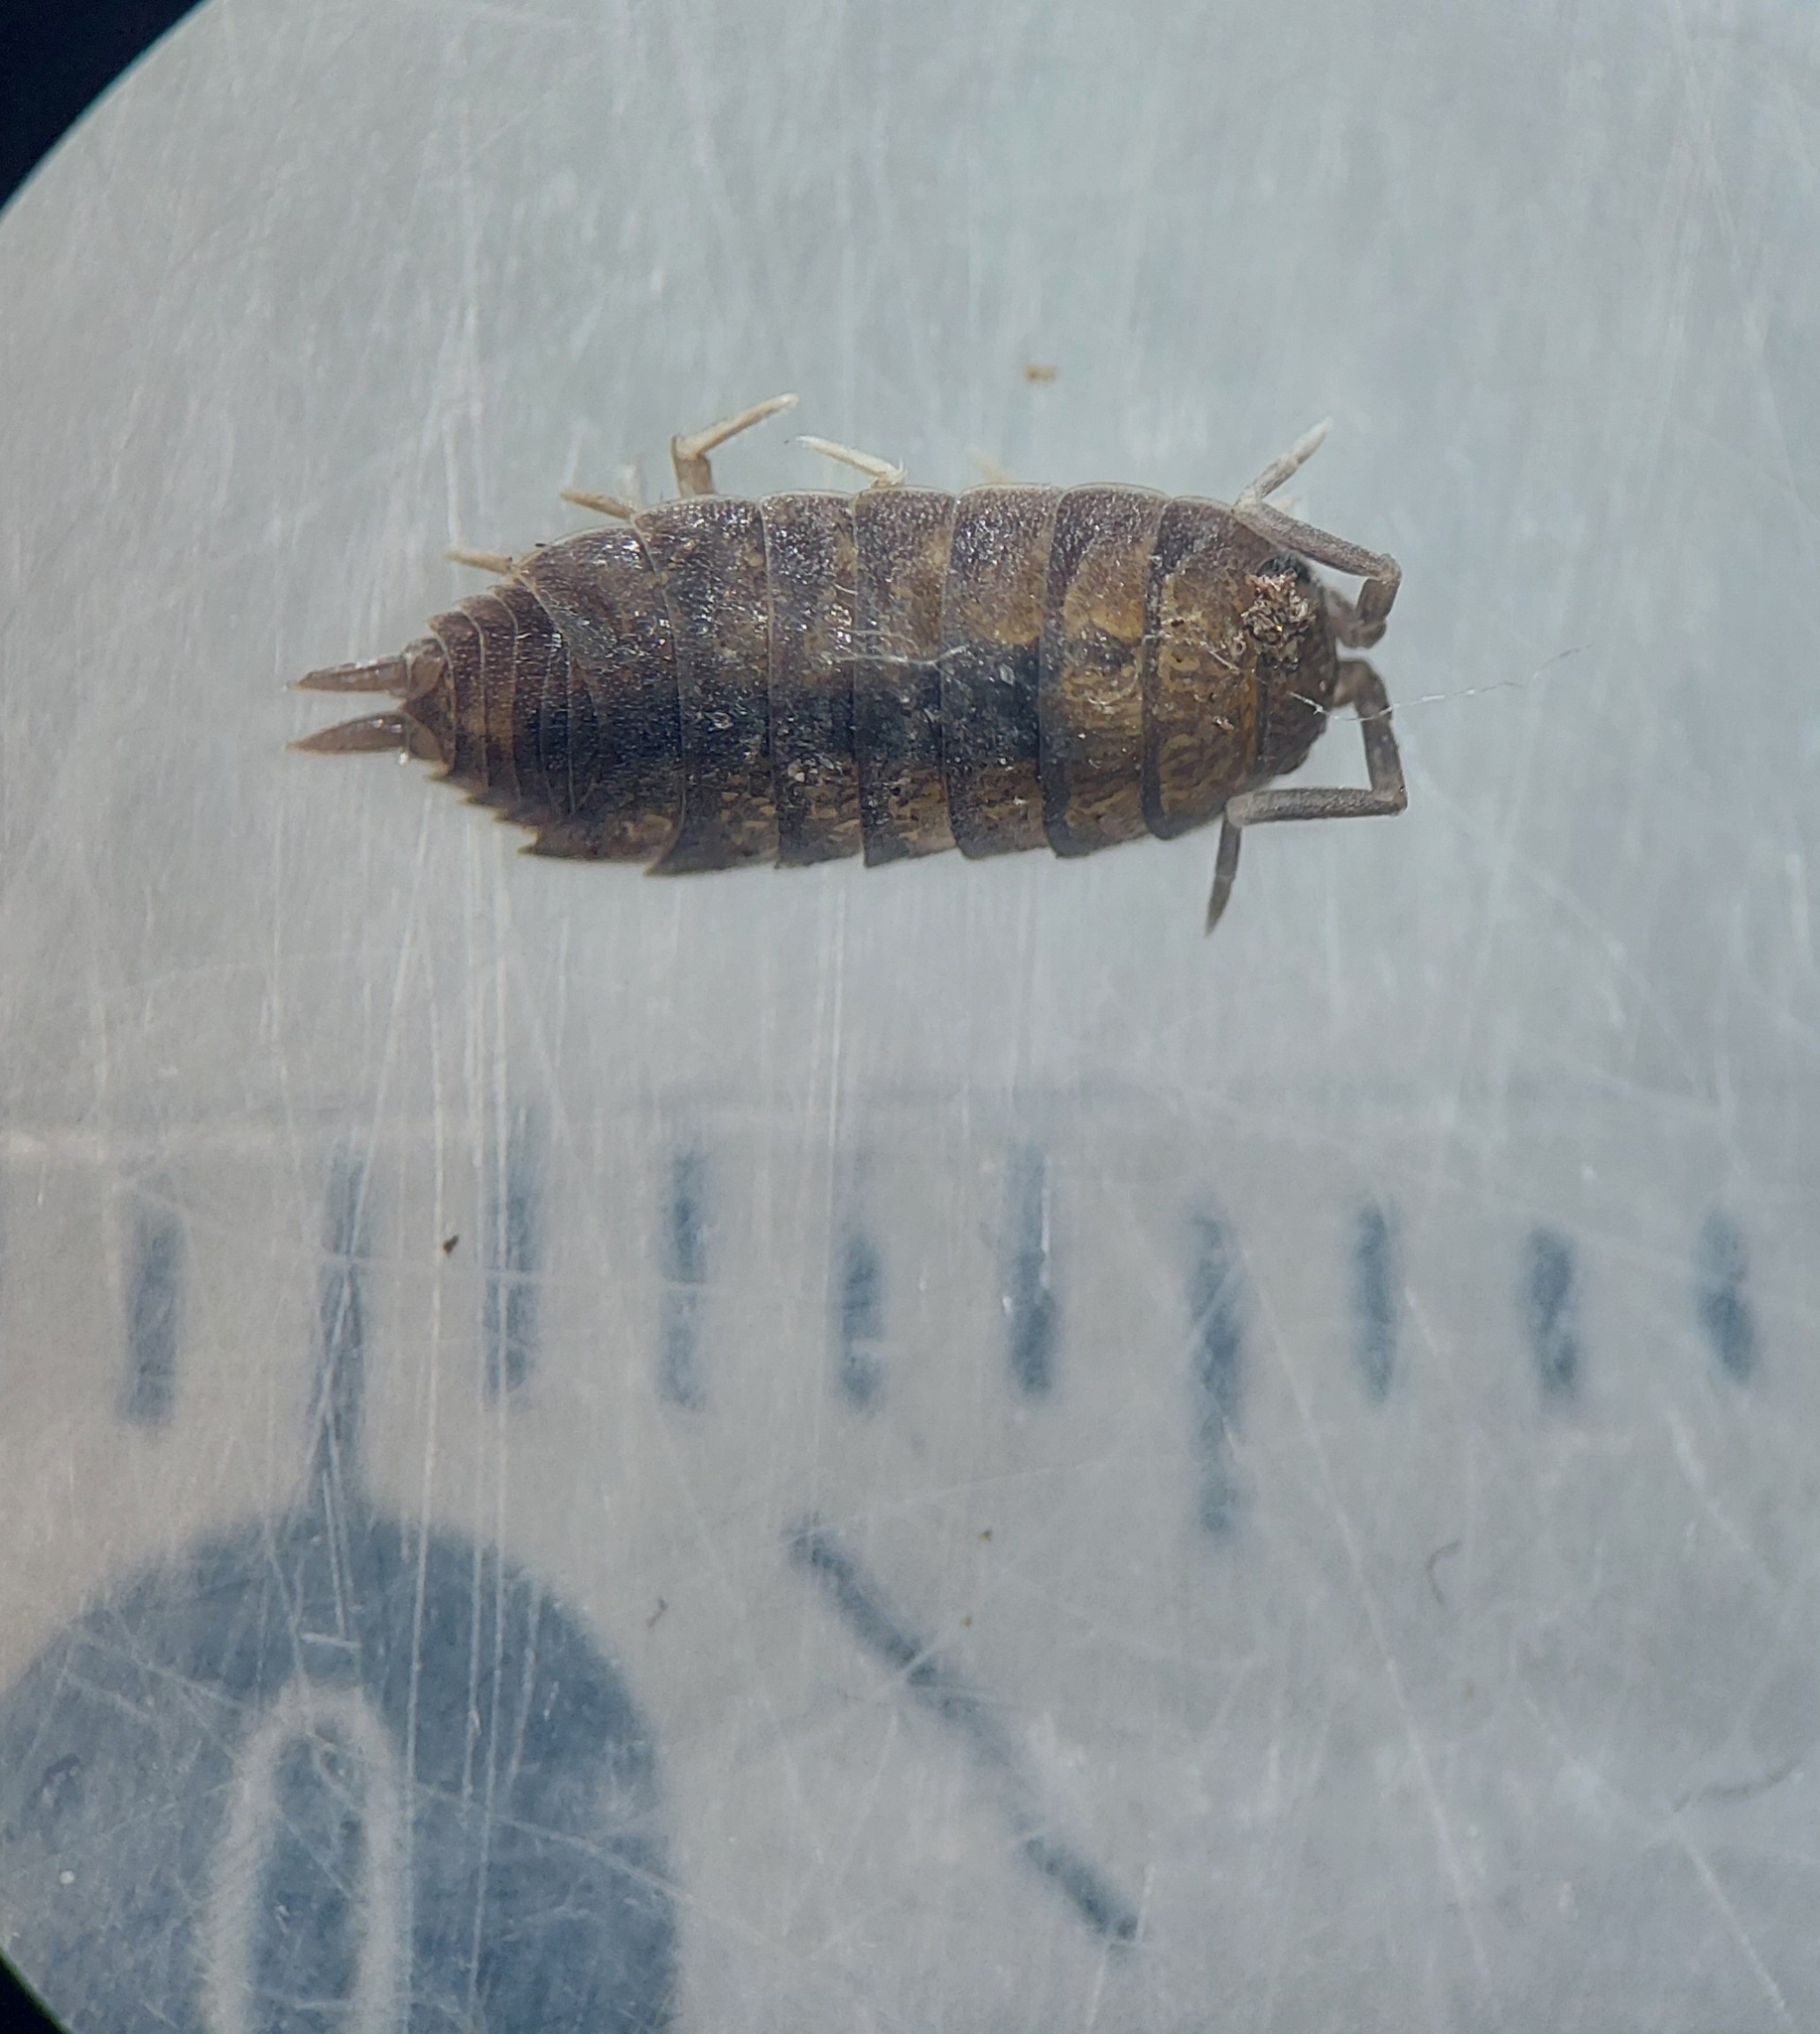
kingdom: Animalia
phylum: Arthropoda
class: Malacostraca
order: Isopoda
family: Porcellionidae
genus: Porcellionides
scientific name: Porcellionides
